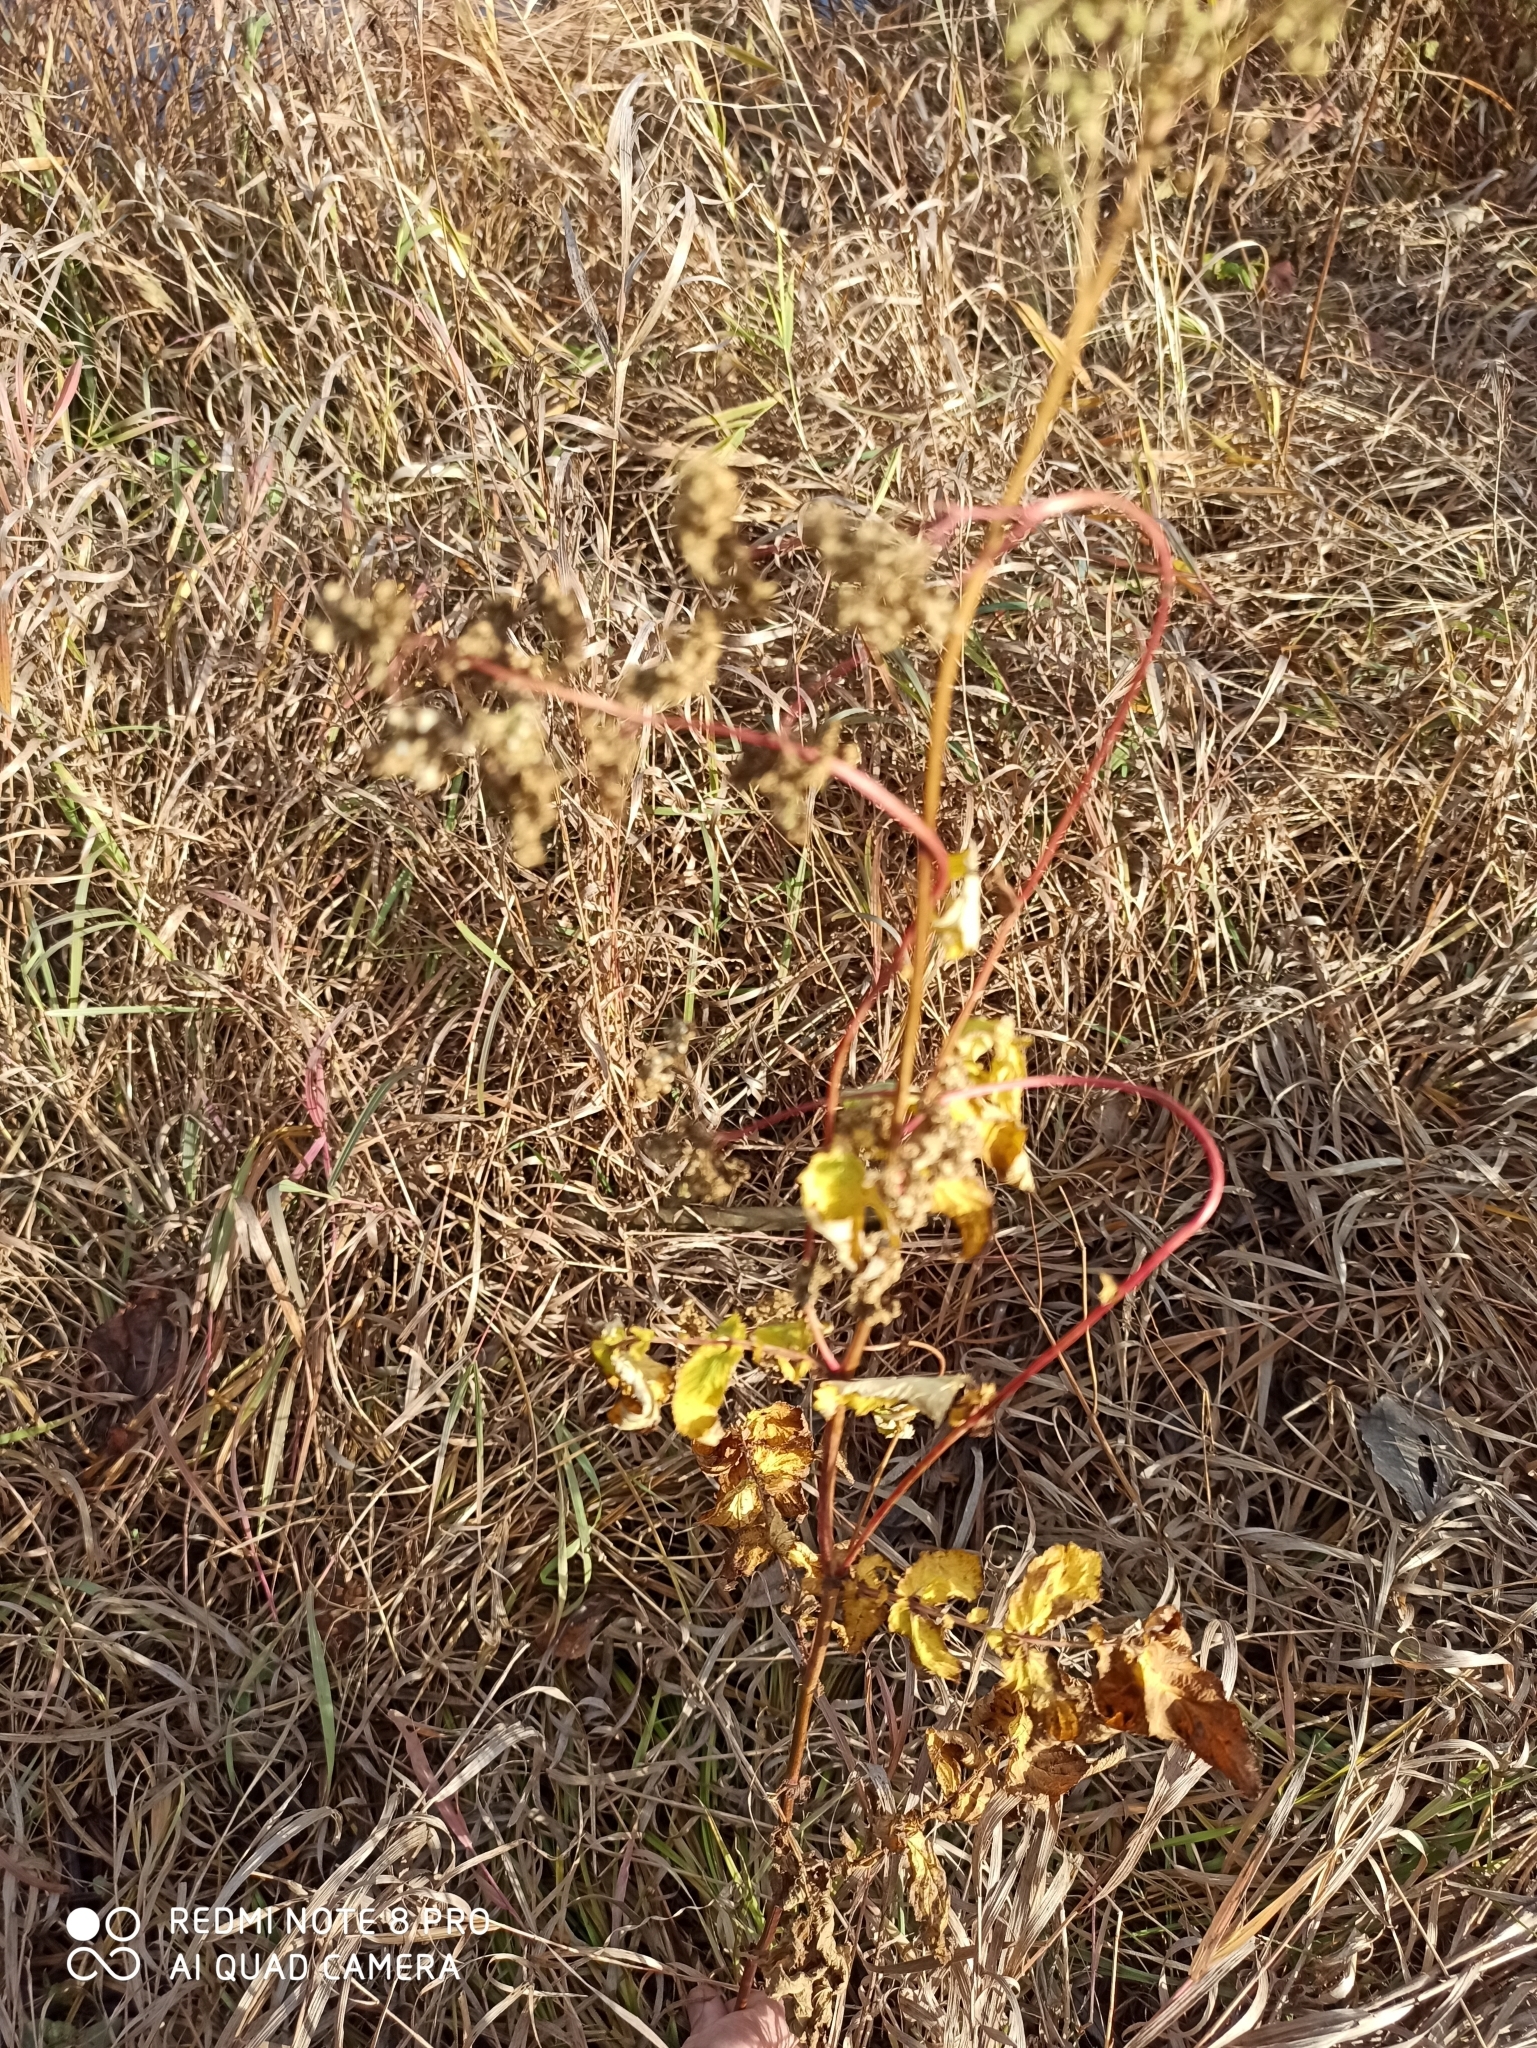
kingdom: Plantae
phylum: Tracheophyta
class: Magnoliopsida
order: Rosales
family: Rosaceae
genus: Filipendula
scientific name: Filipendula ulmaria
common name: Meadowsweet
